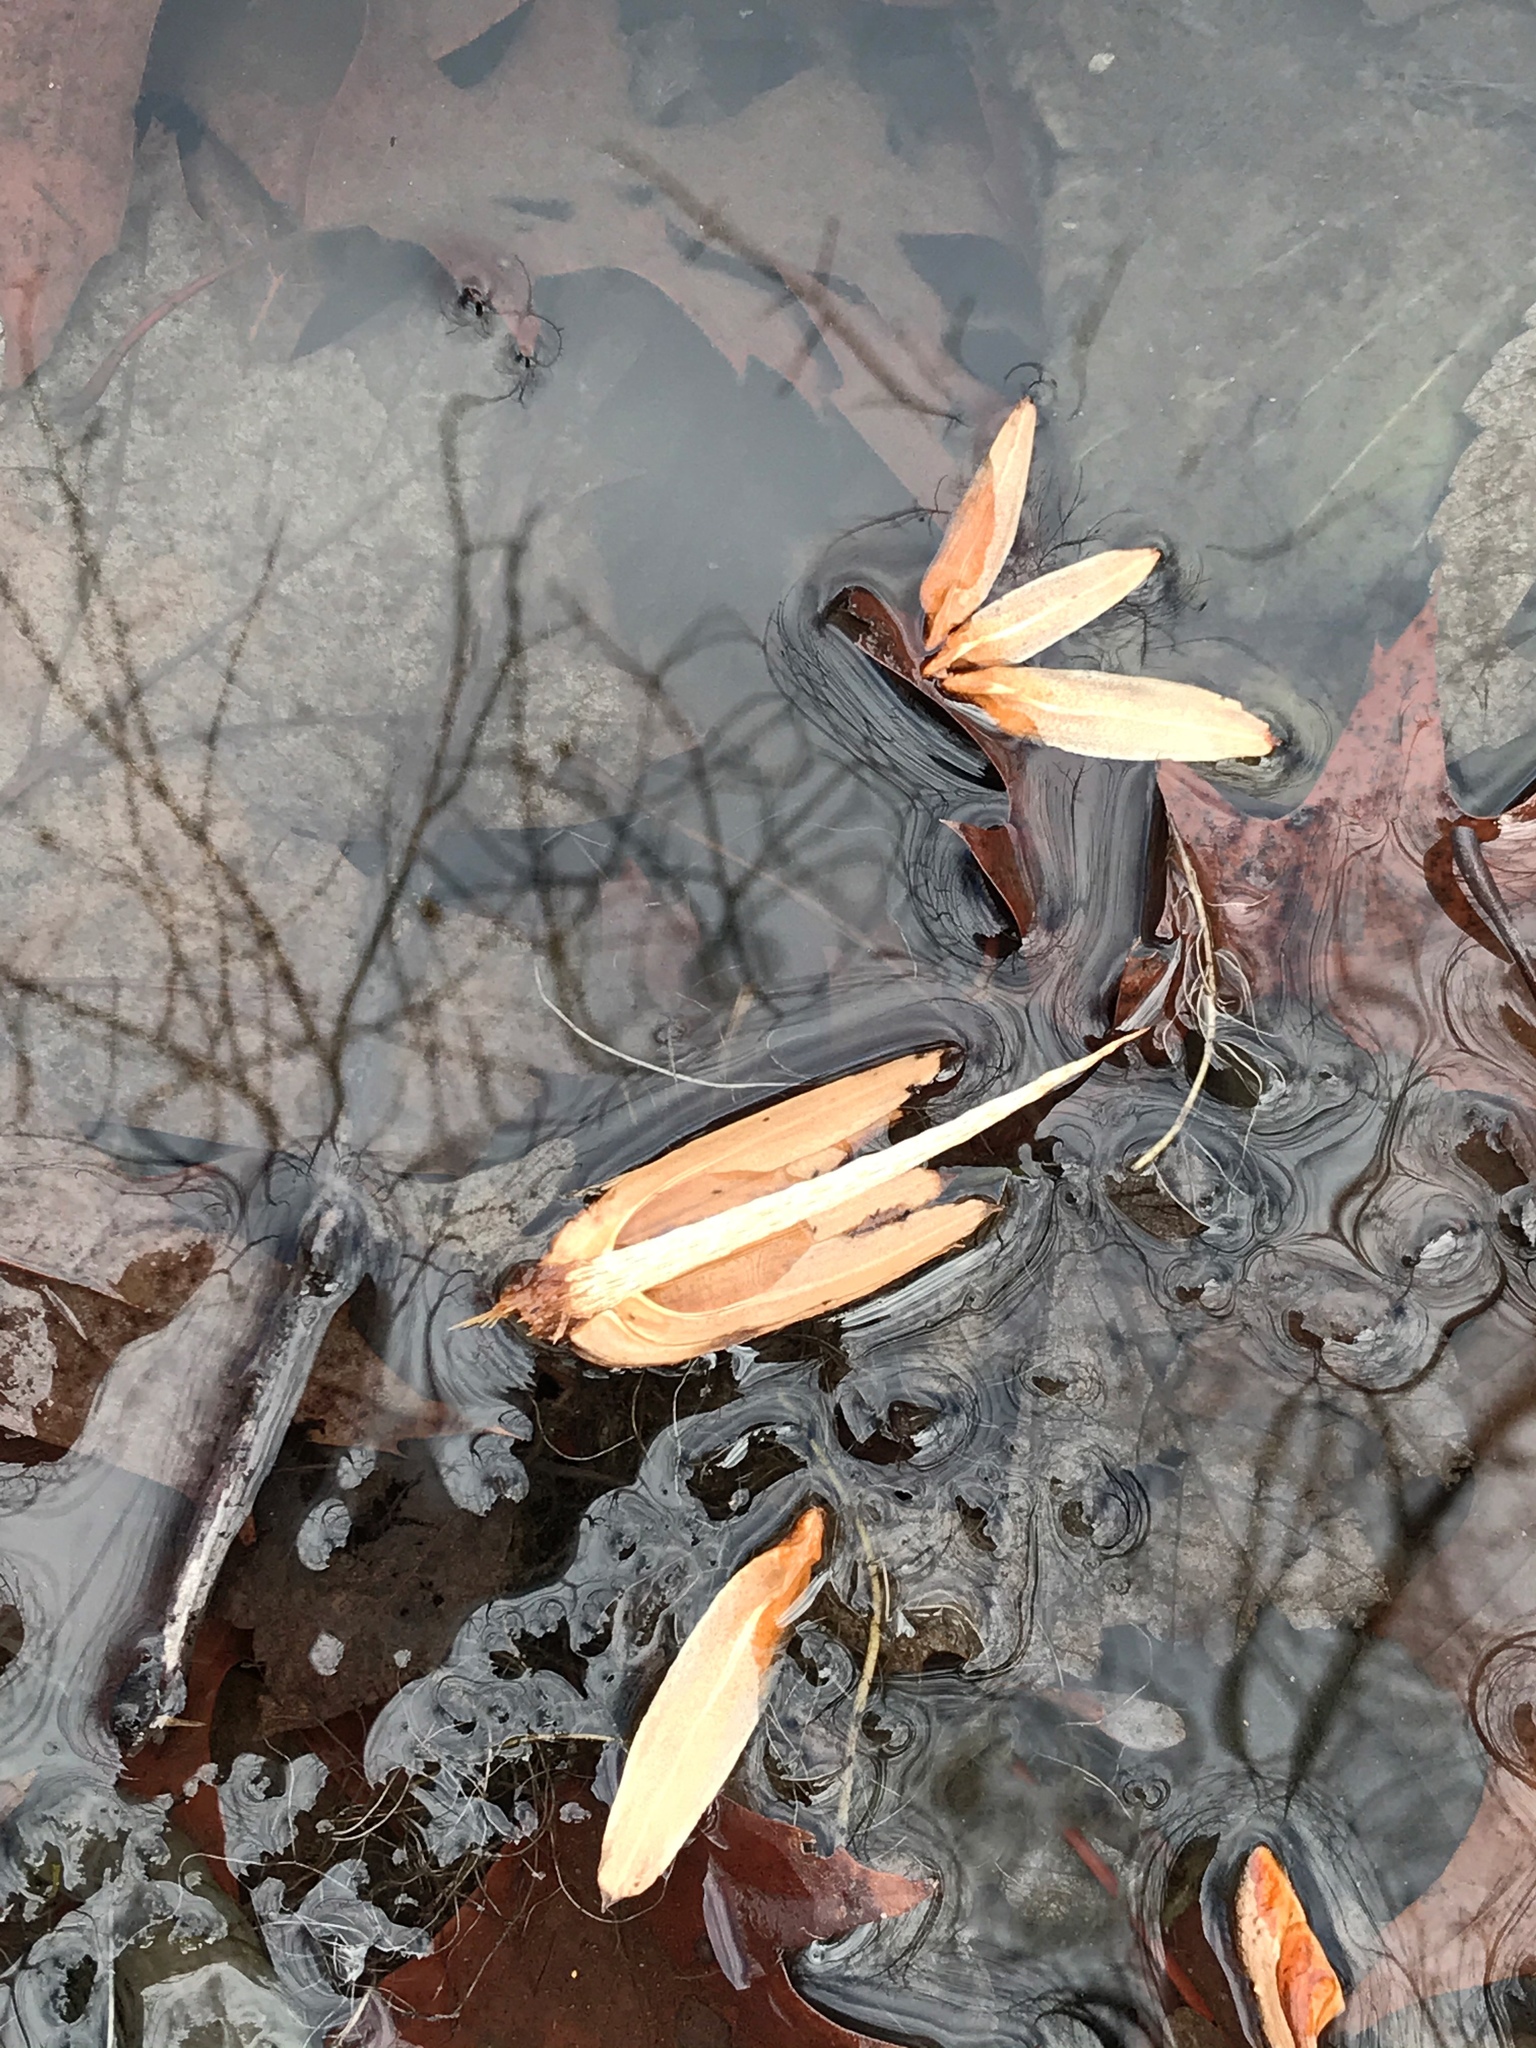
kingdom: Plantae
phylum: Tracheophyta
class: Magnoliopsida
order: Magnoliales
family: Magnoliaceae
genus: Liriodendron
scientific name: Liriodendron tulipifera
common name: Tulip tree
